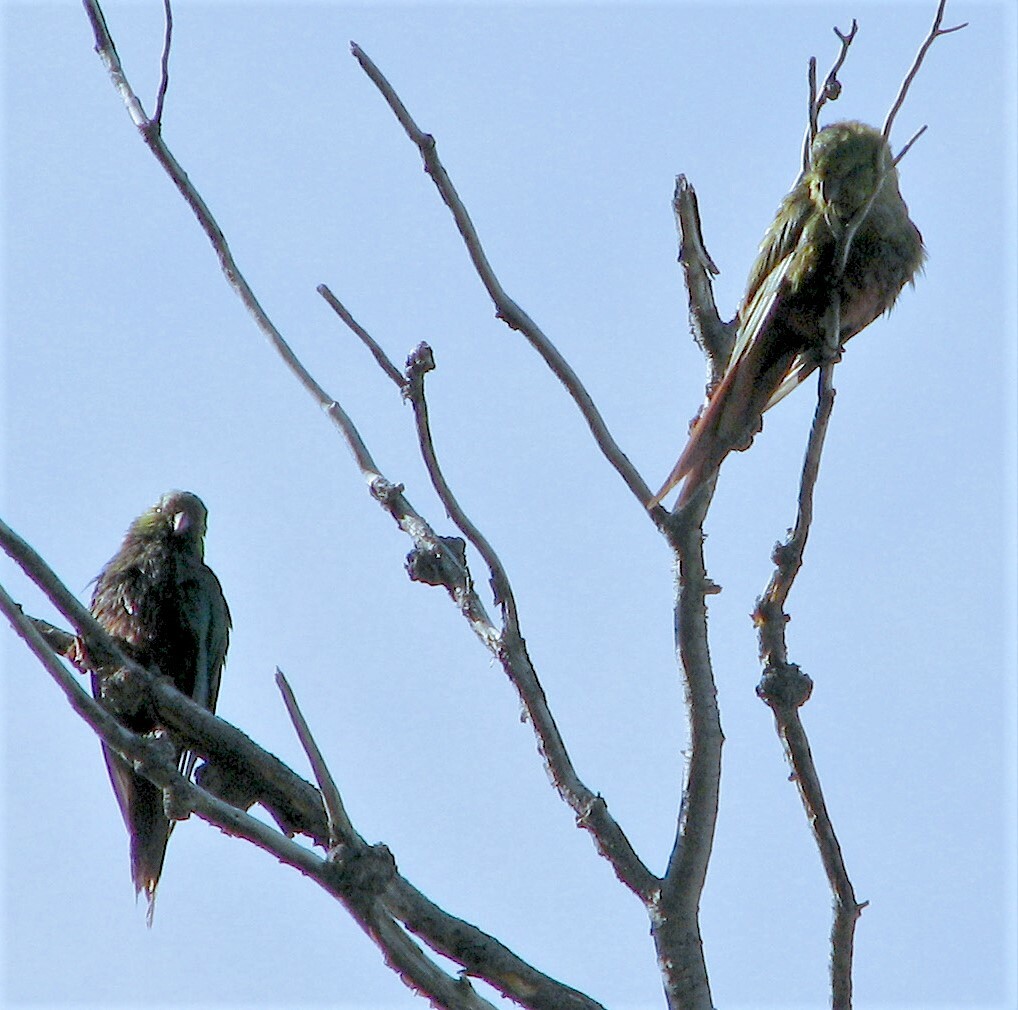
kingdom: Animalia
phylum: Chordata
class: Aves
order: Psittaciformes
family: Psittacidae
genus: Enicognathus
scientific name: Enicognathus ferrugineus
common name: Austral parakeet
